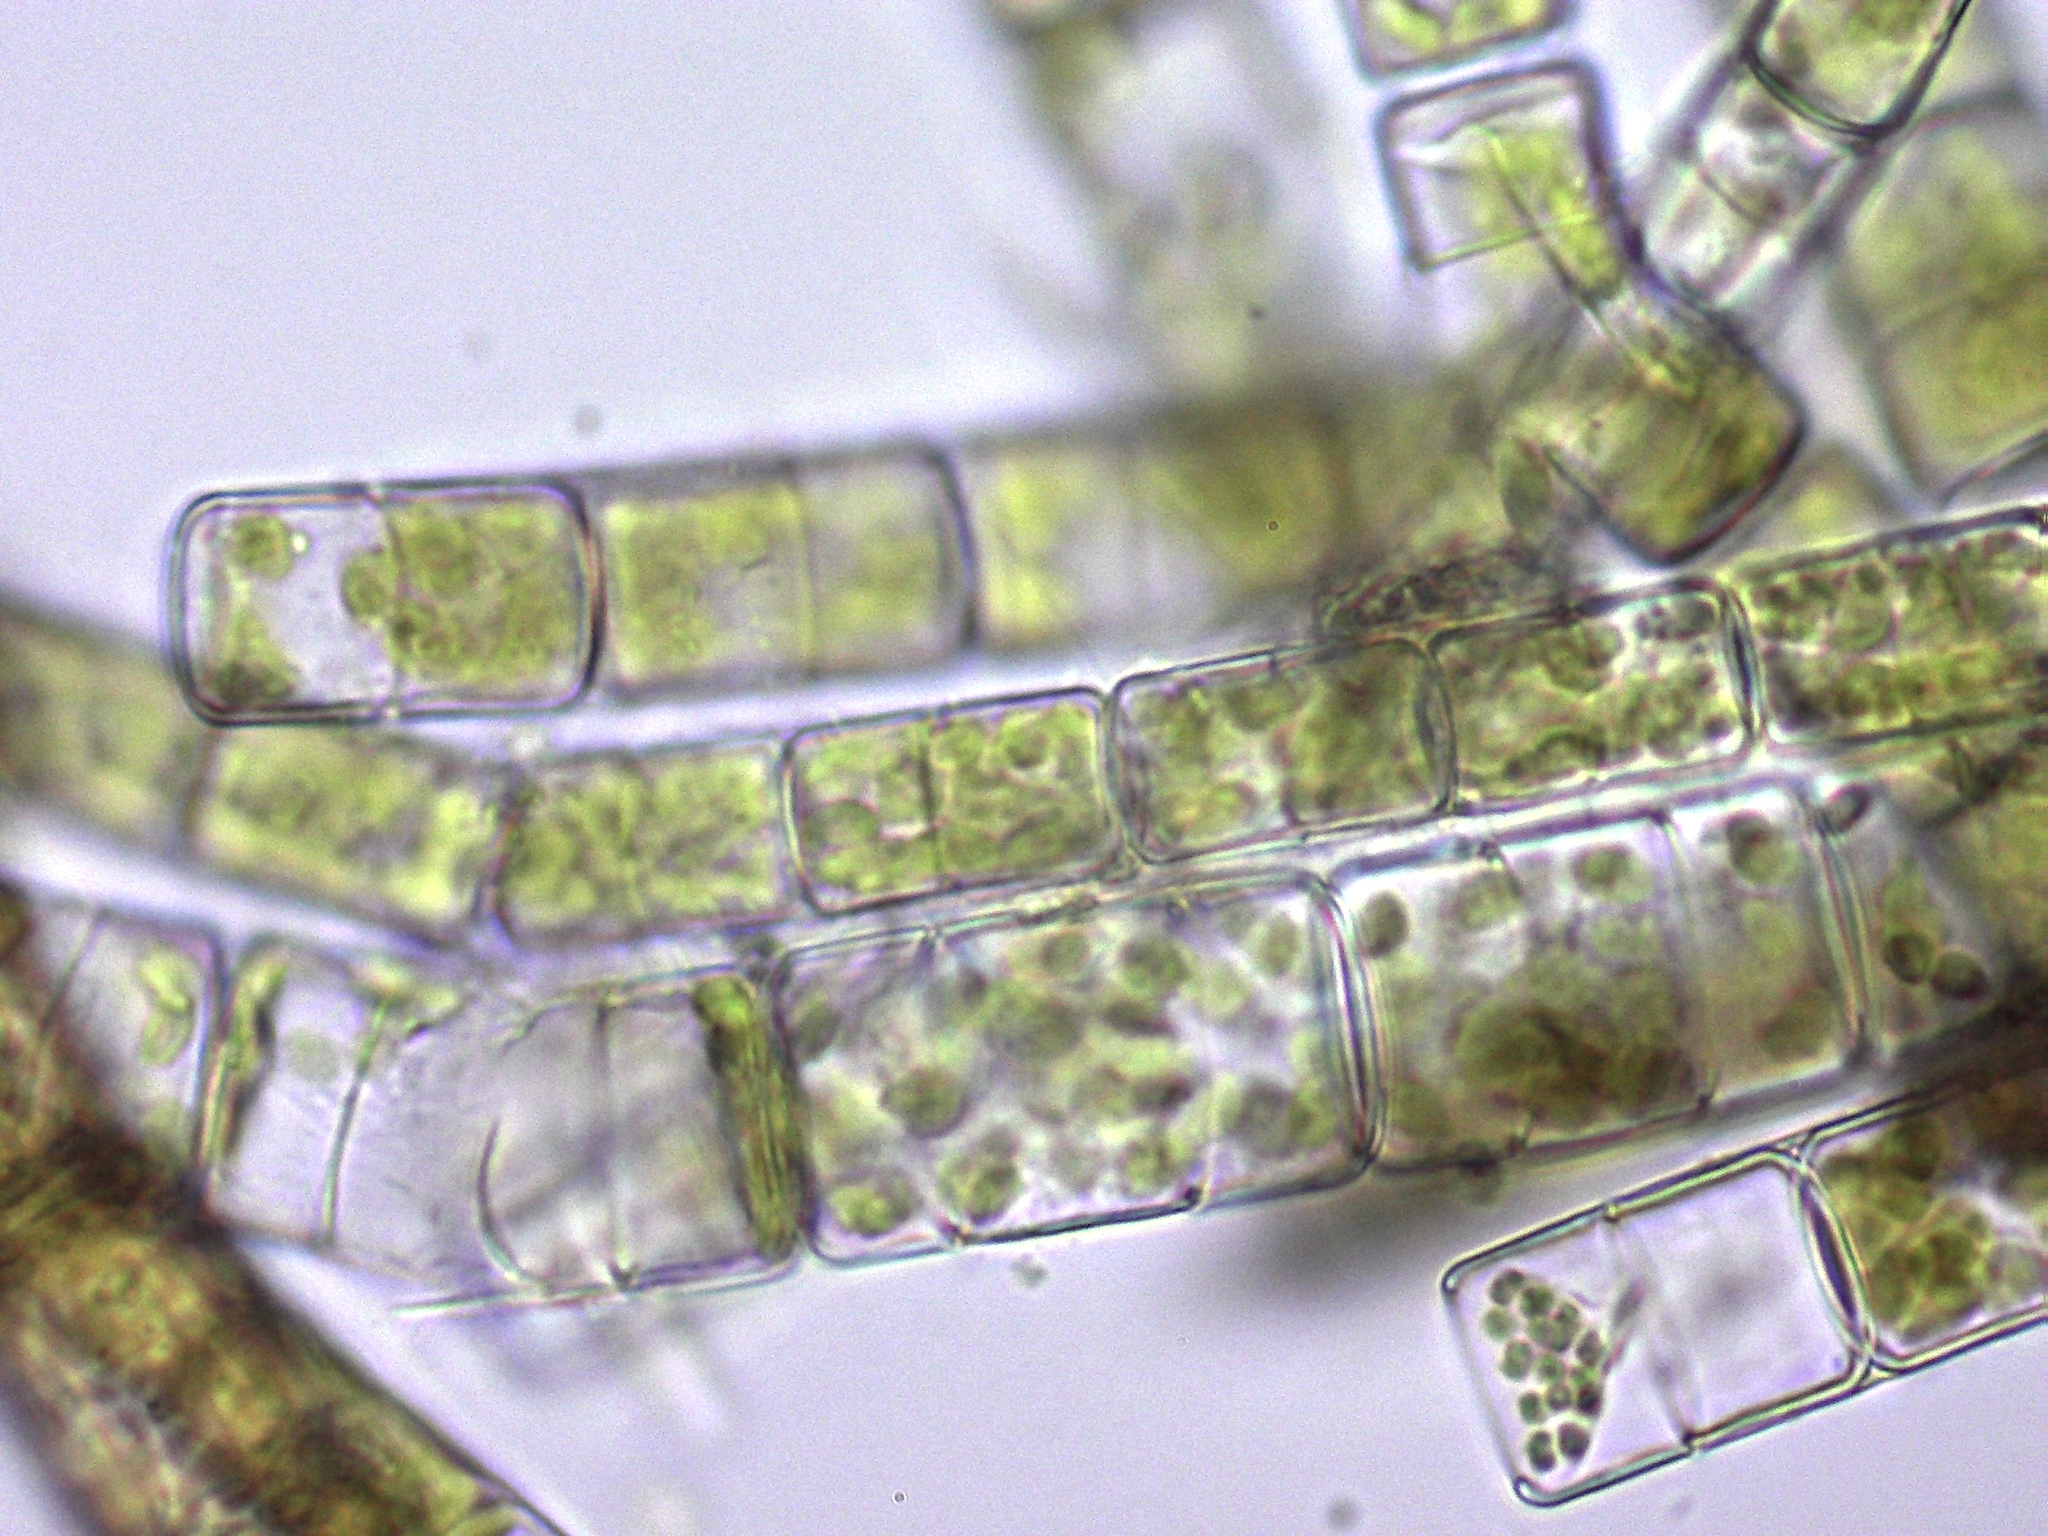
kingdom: Chromista
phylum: Ochrophyta
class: Bacillariophyceae
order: Melosirales
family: Melosiraceae
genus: Melosira
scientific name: Melosira varians
